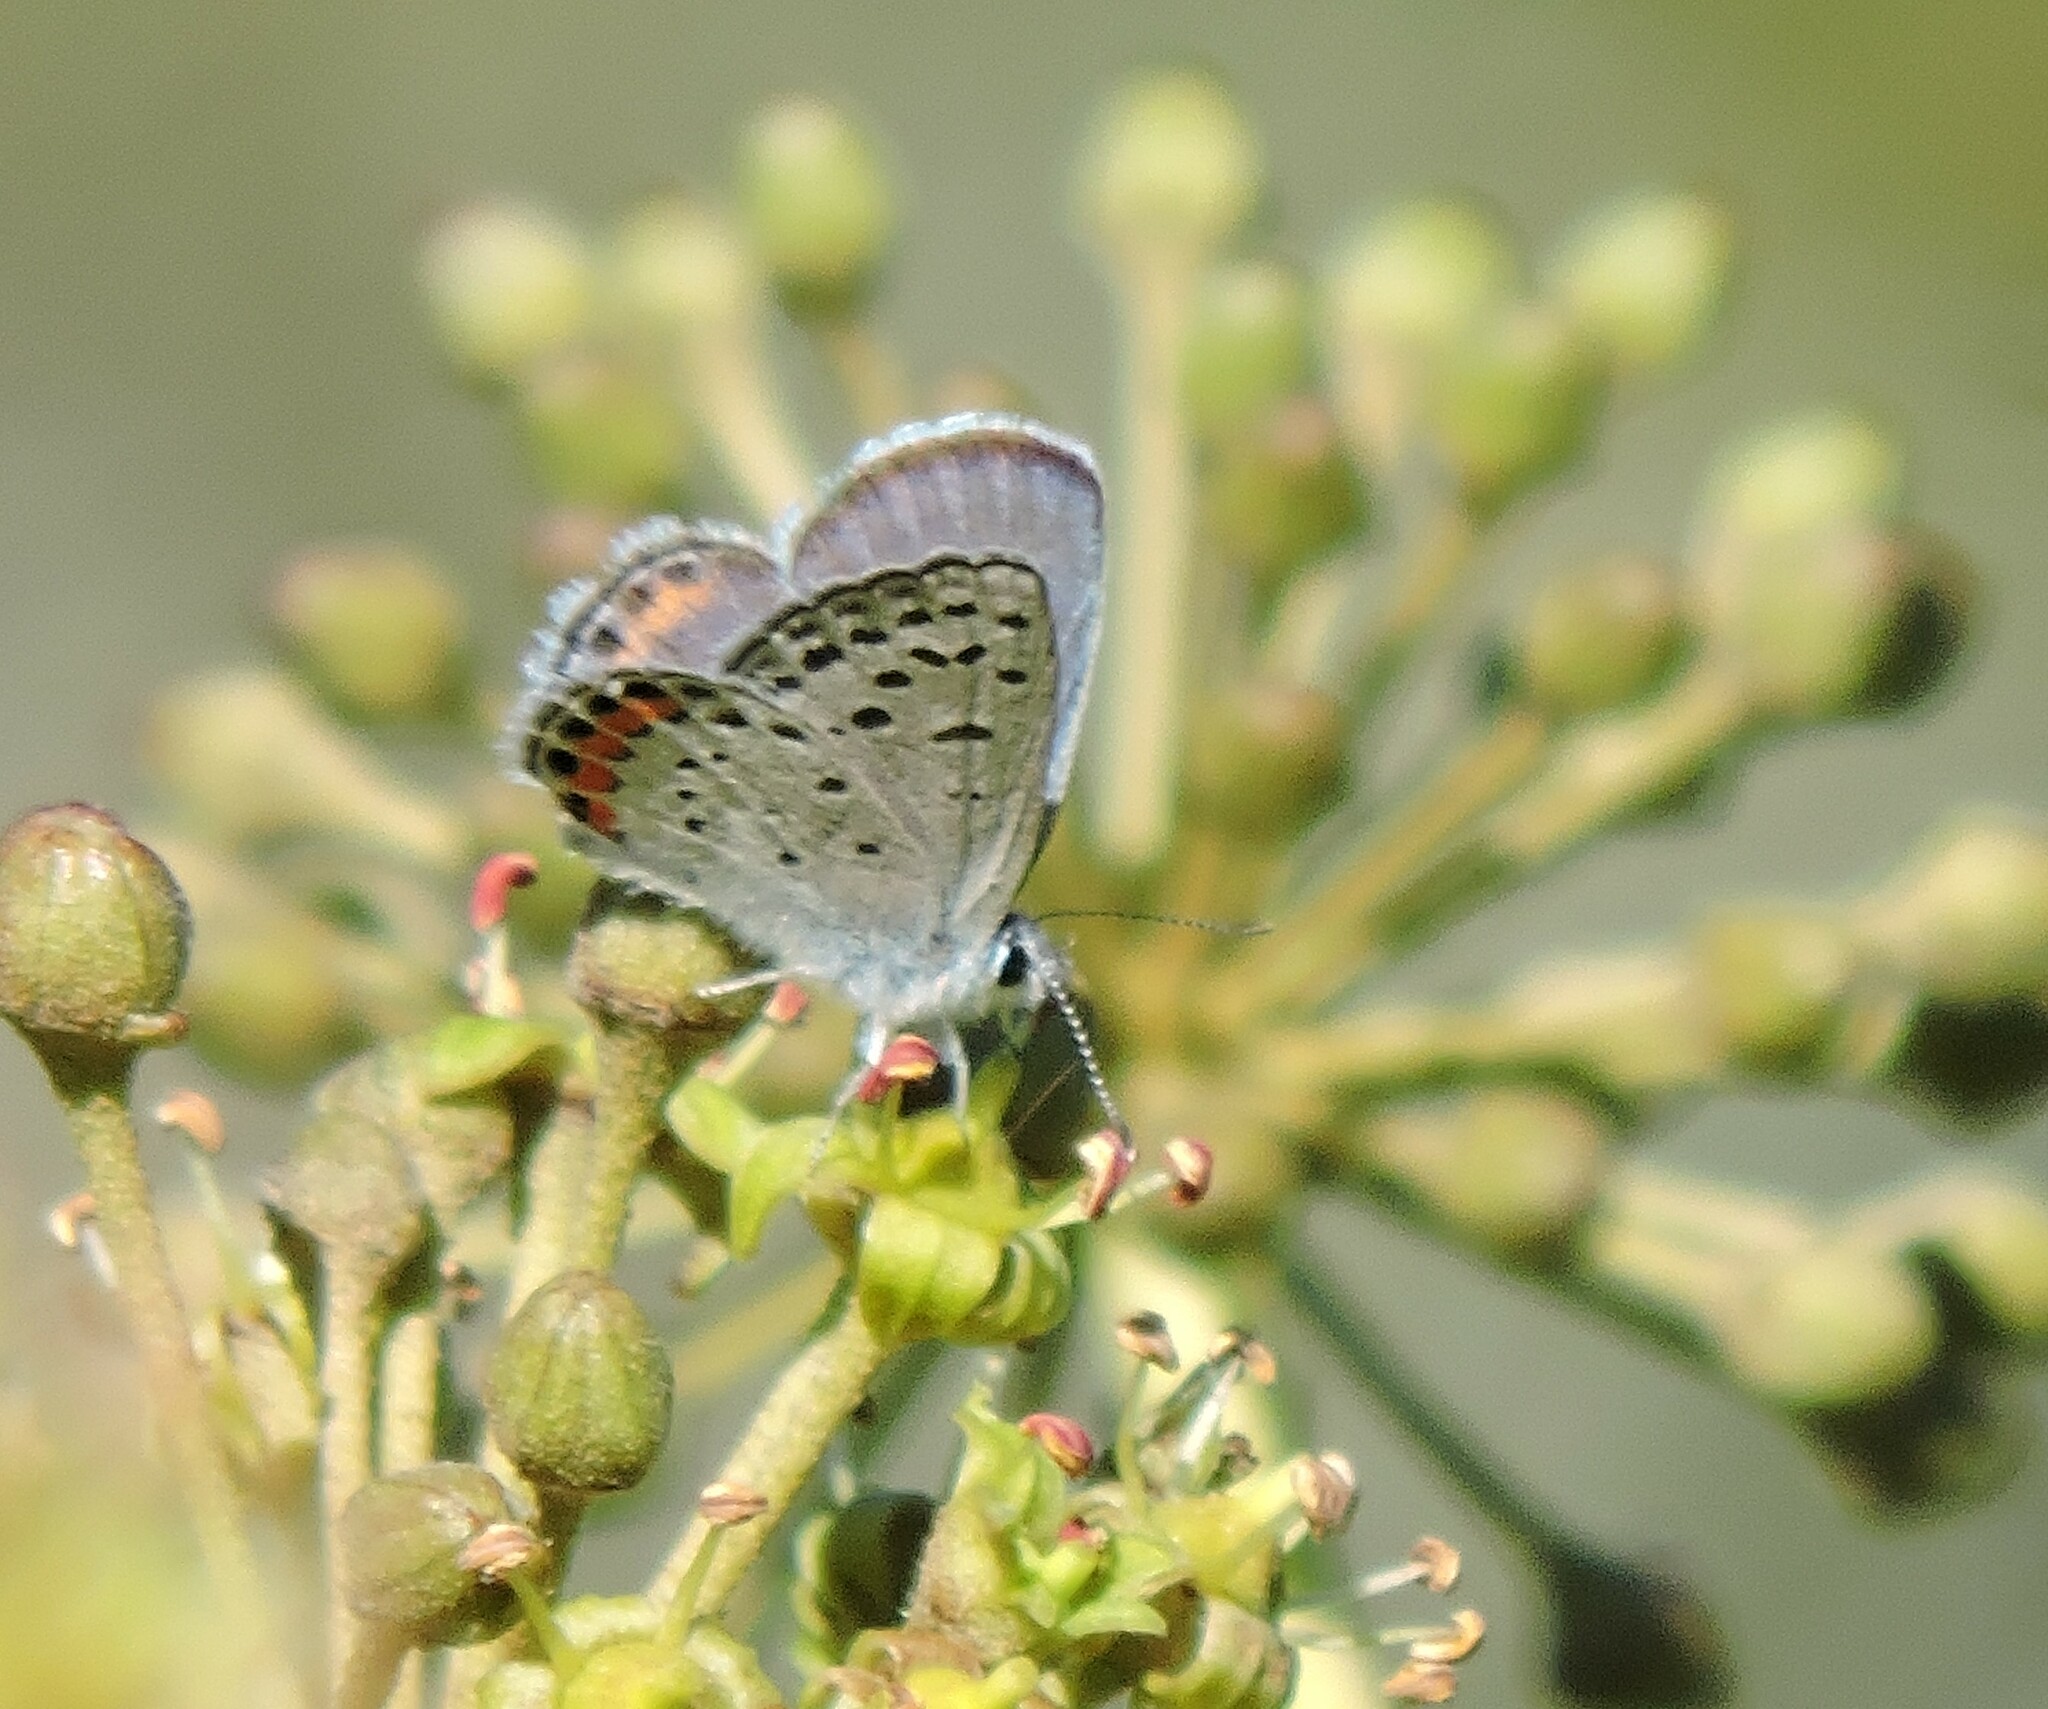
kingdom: Animalia
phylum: Arthropoda
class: Insecta
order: Lepidoptera
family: Lycaenidae
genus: Icaricia
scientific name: Icaricia acmon
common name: Acmon blue
